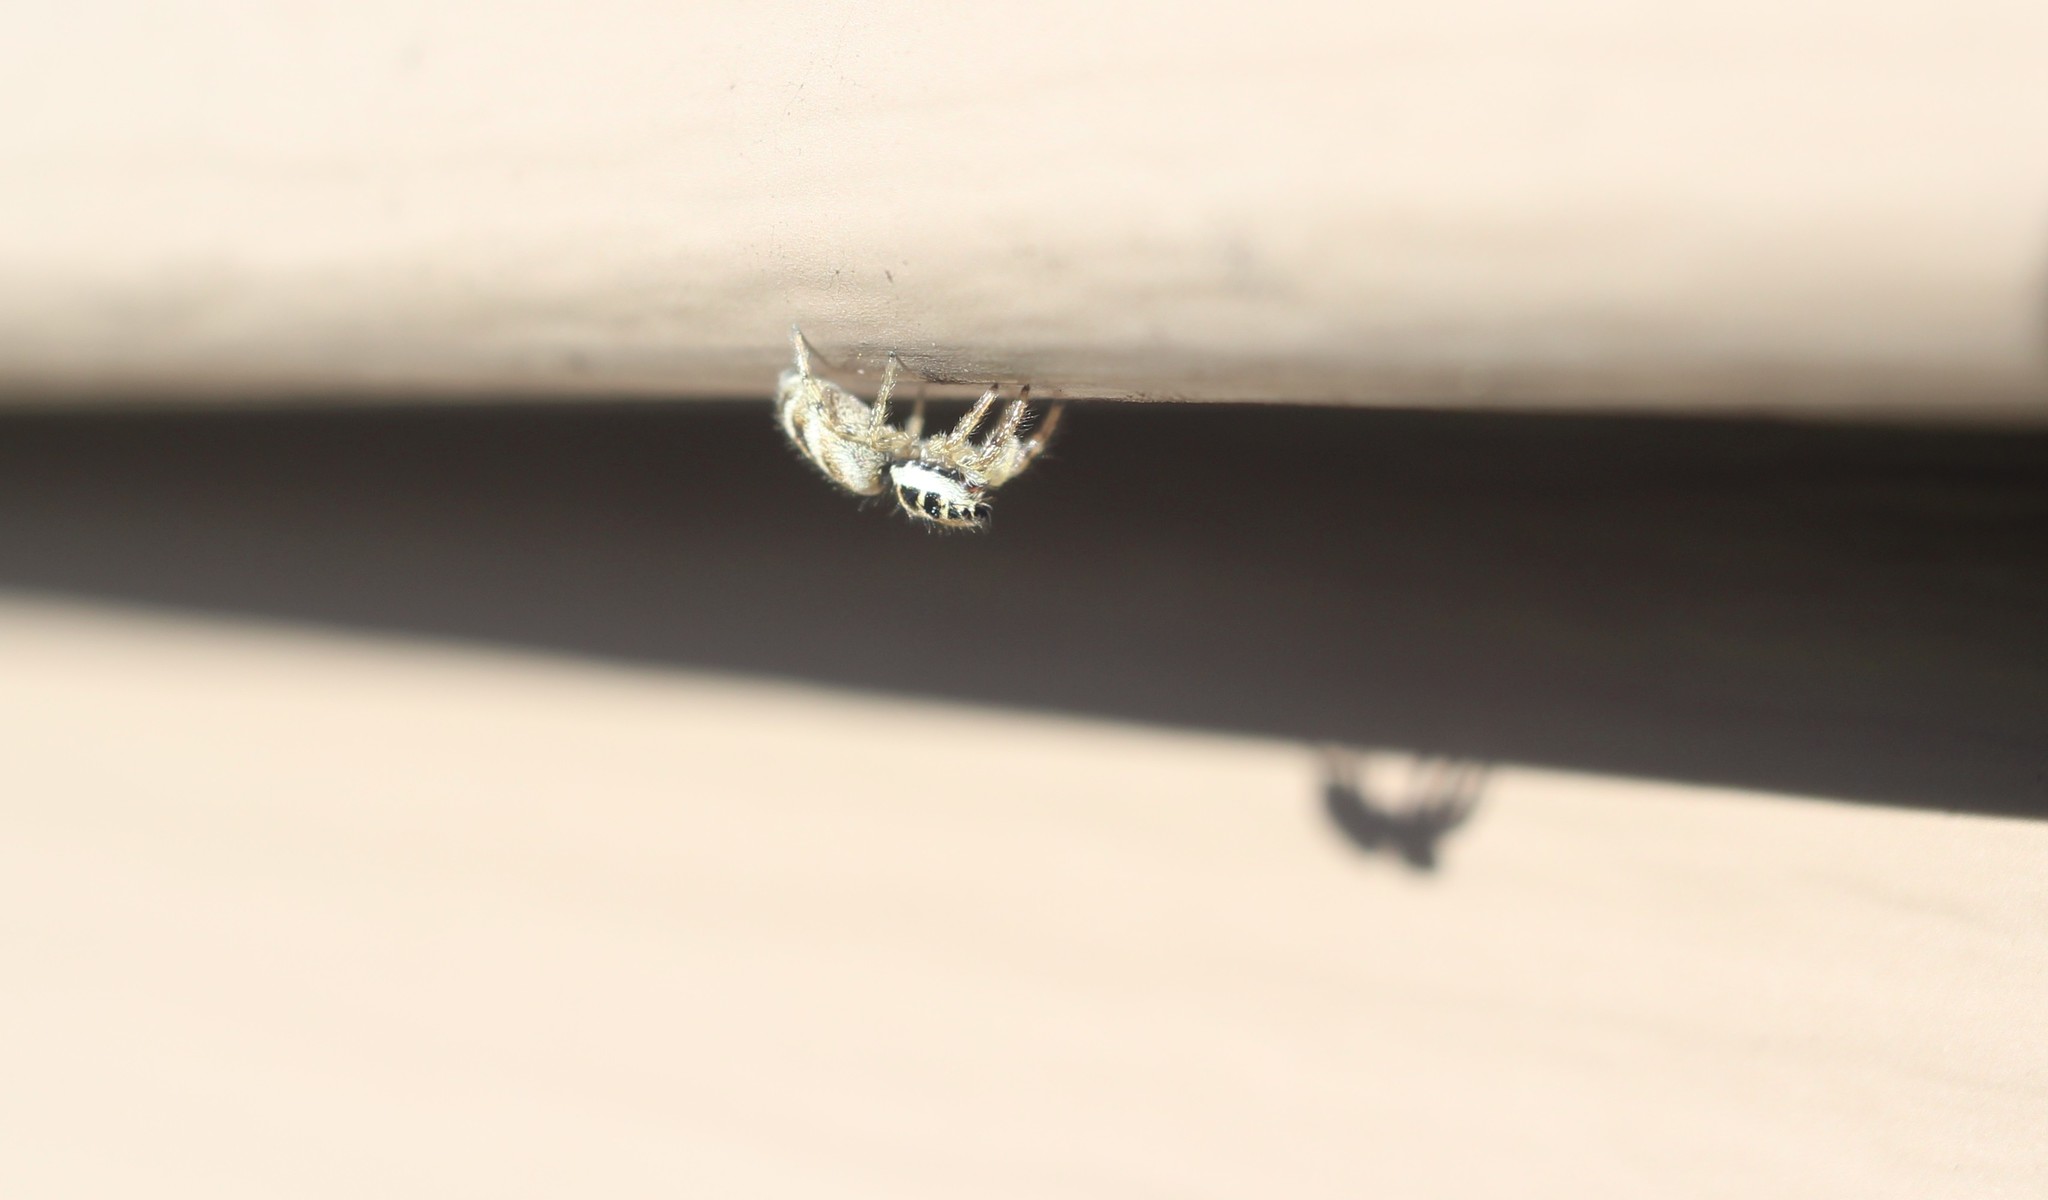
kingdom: Animalia
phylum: Arthropoda
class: Arachnida
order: Araneae
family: Salticidae
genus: Salticus
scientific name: Salticus scenicus
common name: Zebra jumper
